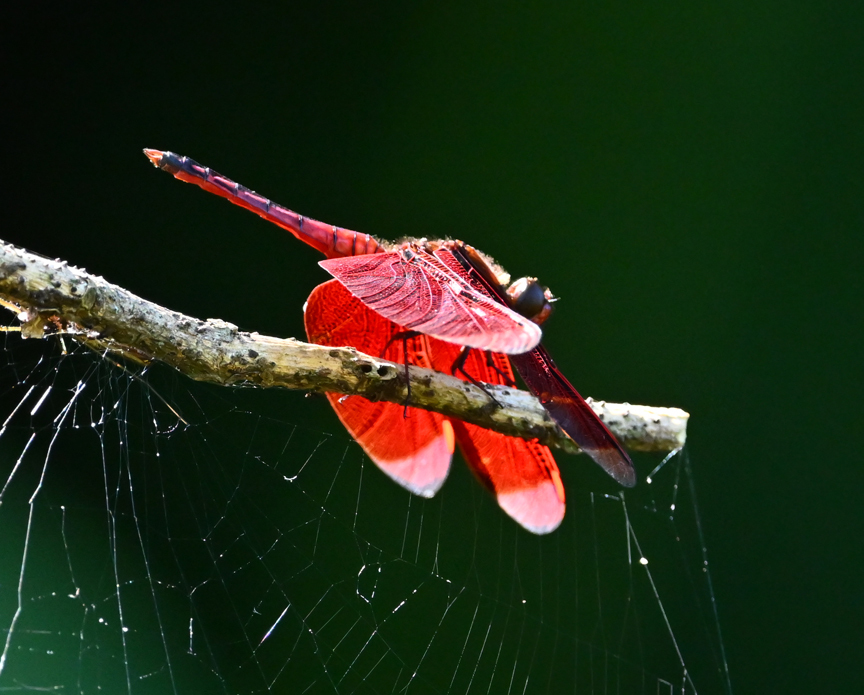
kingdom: Animalia
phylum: Arthropoda
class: Insecta
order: Odonata
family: Libellulidae
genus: Neurothemis
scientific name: Neurothemis taiwanensis
